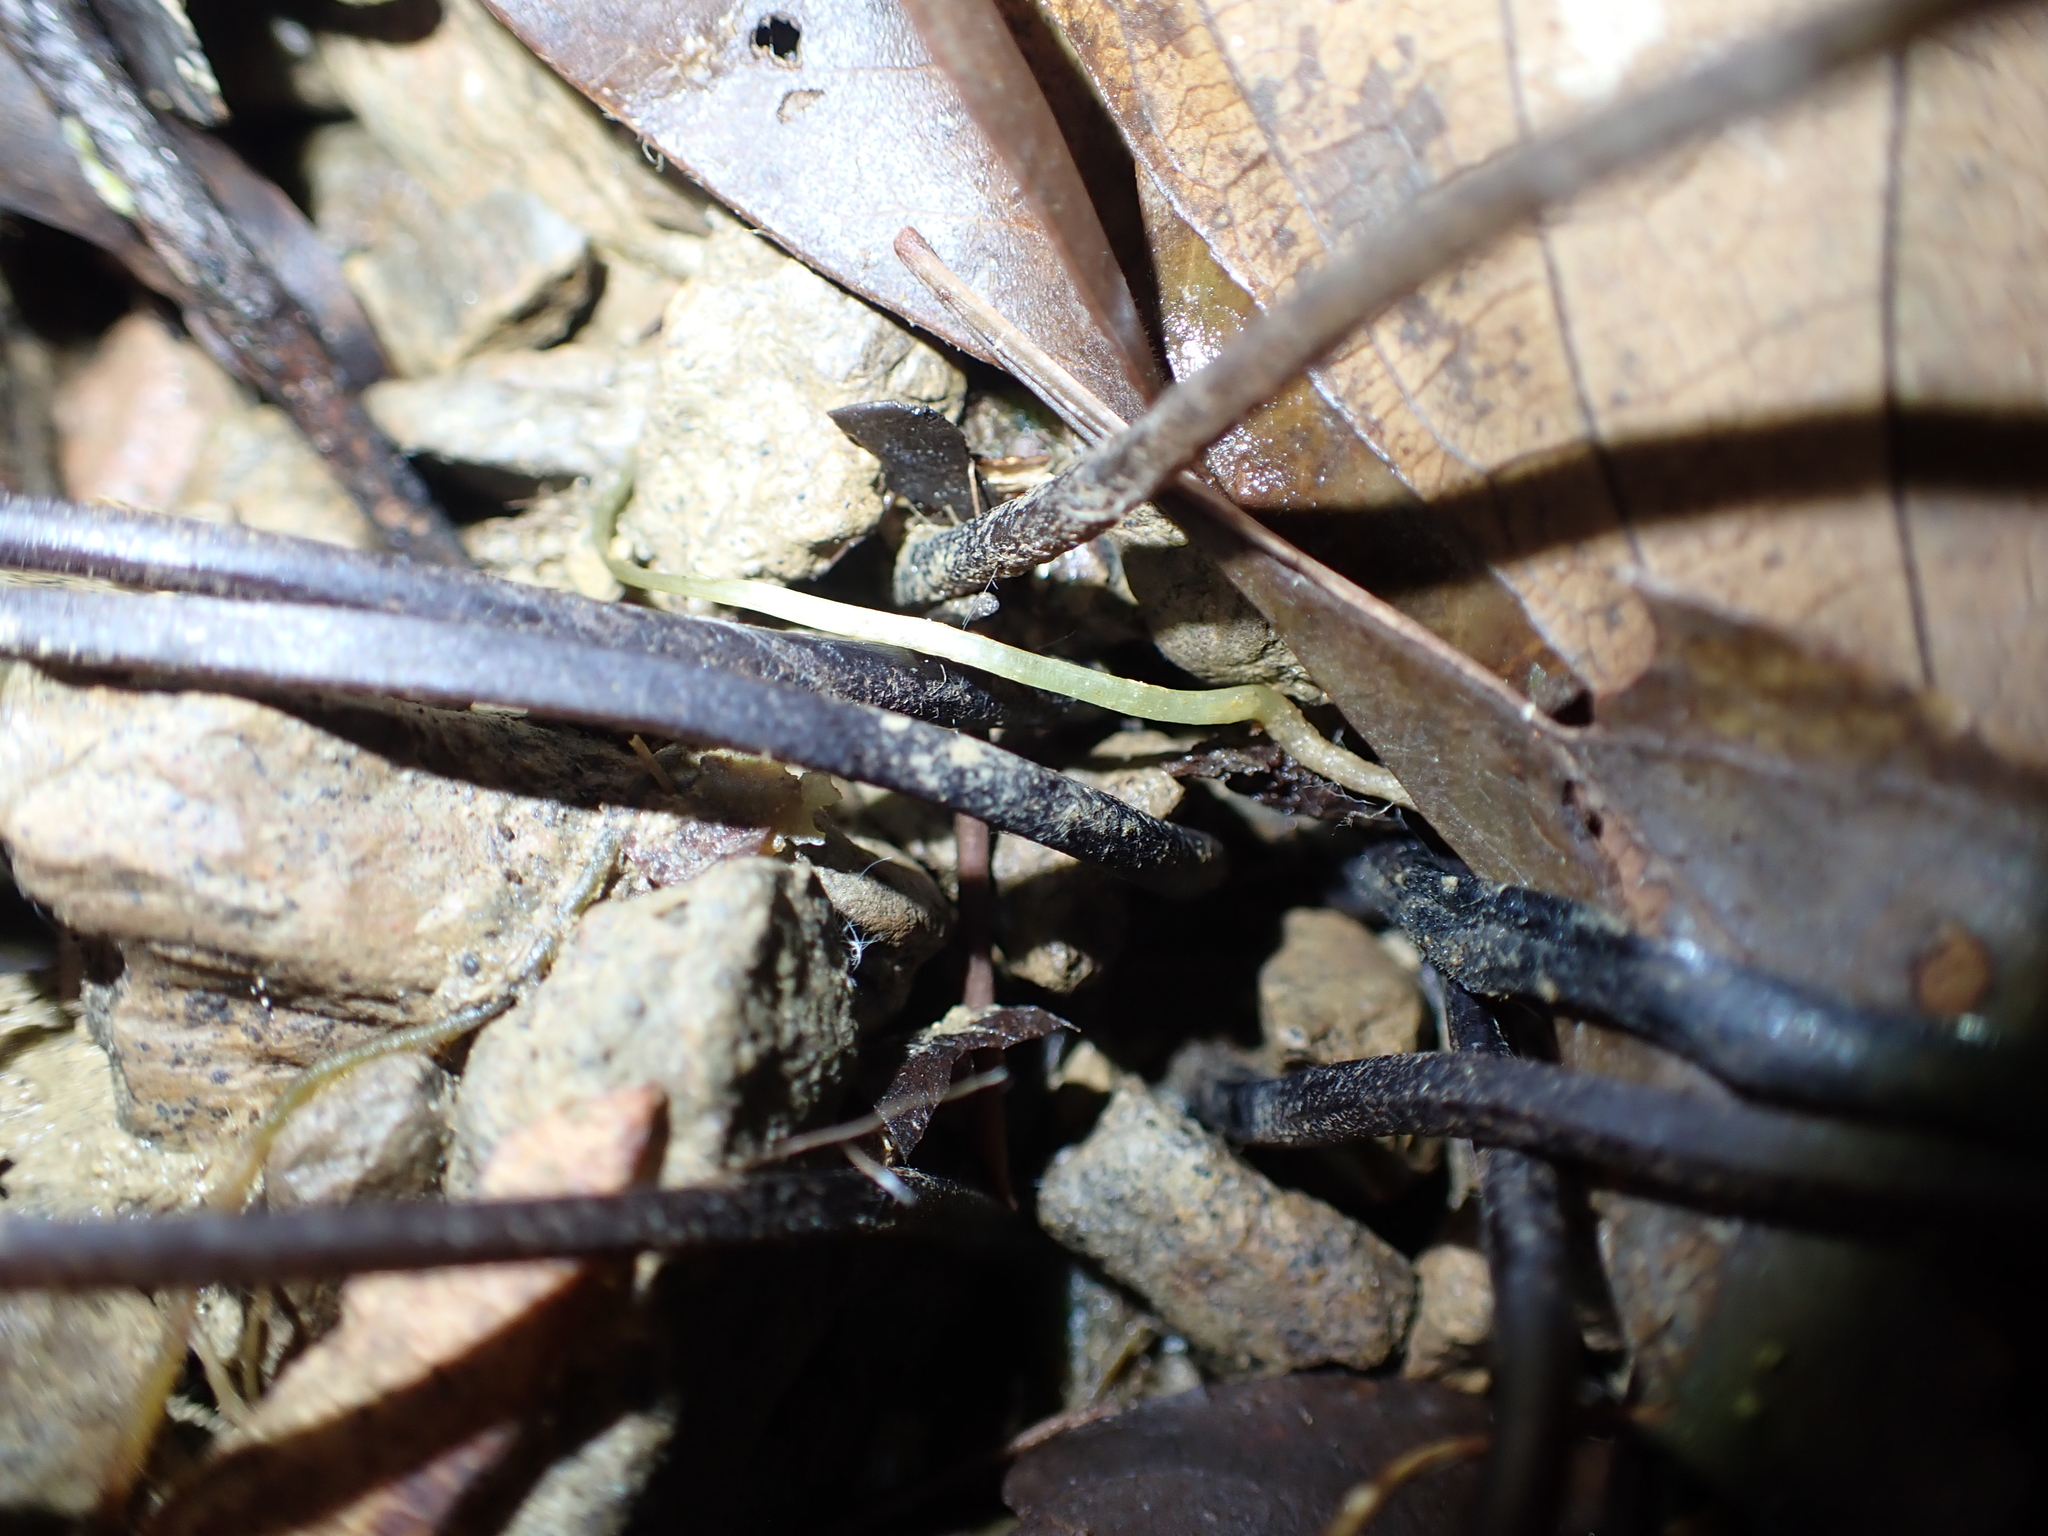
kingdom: Plantae
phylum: Tracheophyta
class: Polypodiopsida
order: Polypodiales
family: Aspleniaceae
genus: Hymenasplenium
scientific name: Hymenasplenium apogamum
